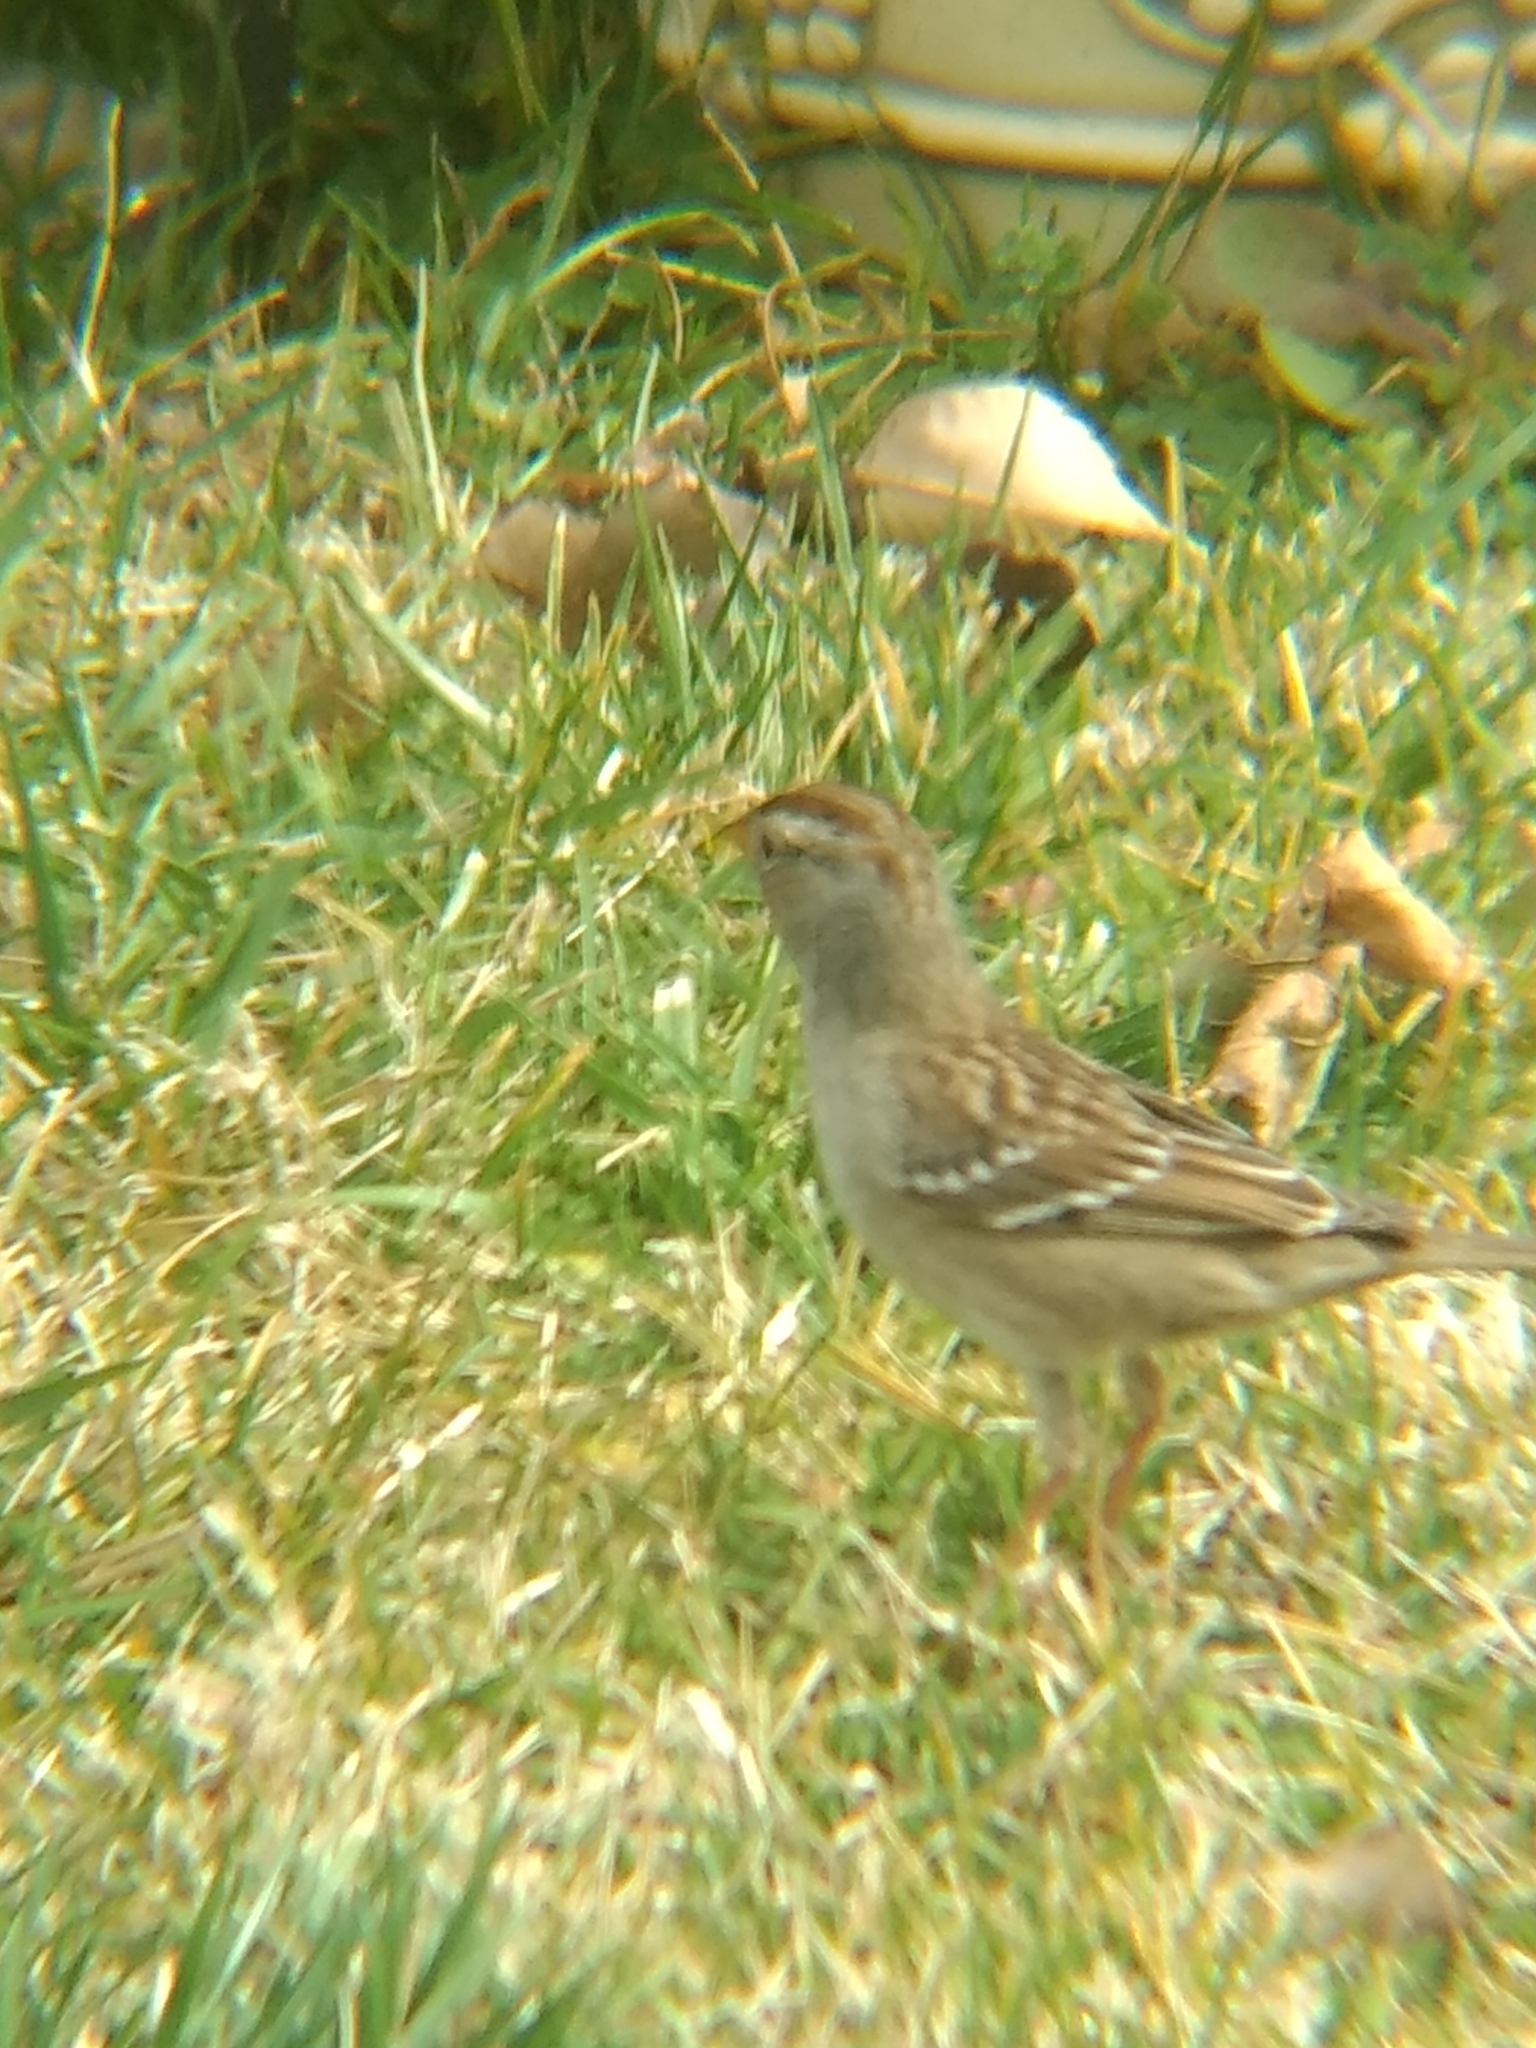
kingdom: Animalia
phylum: Chordata
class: Aves
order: Passeriformes
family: Passerellidae
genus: Zonotrichia
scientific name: Zonotrichia leucophrys
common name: White-crowned sparrow
